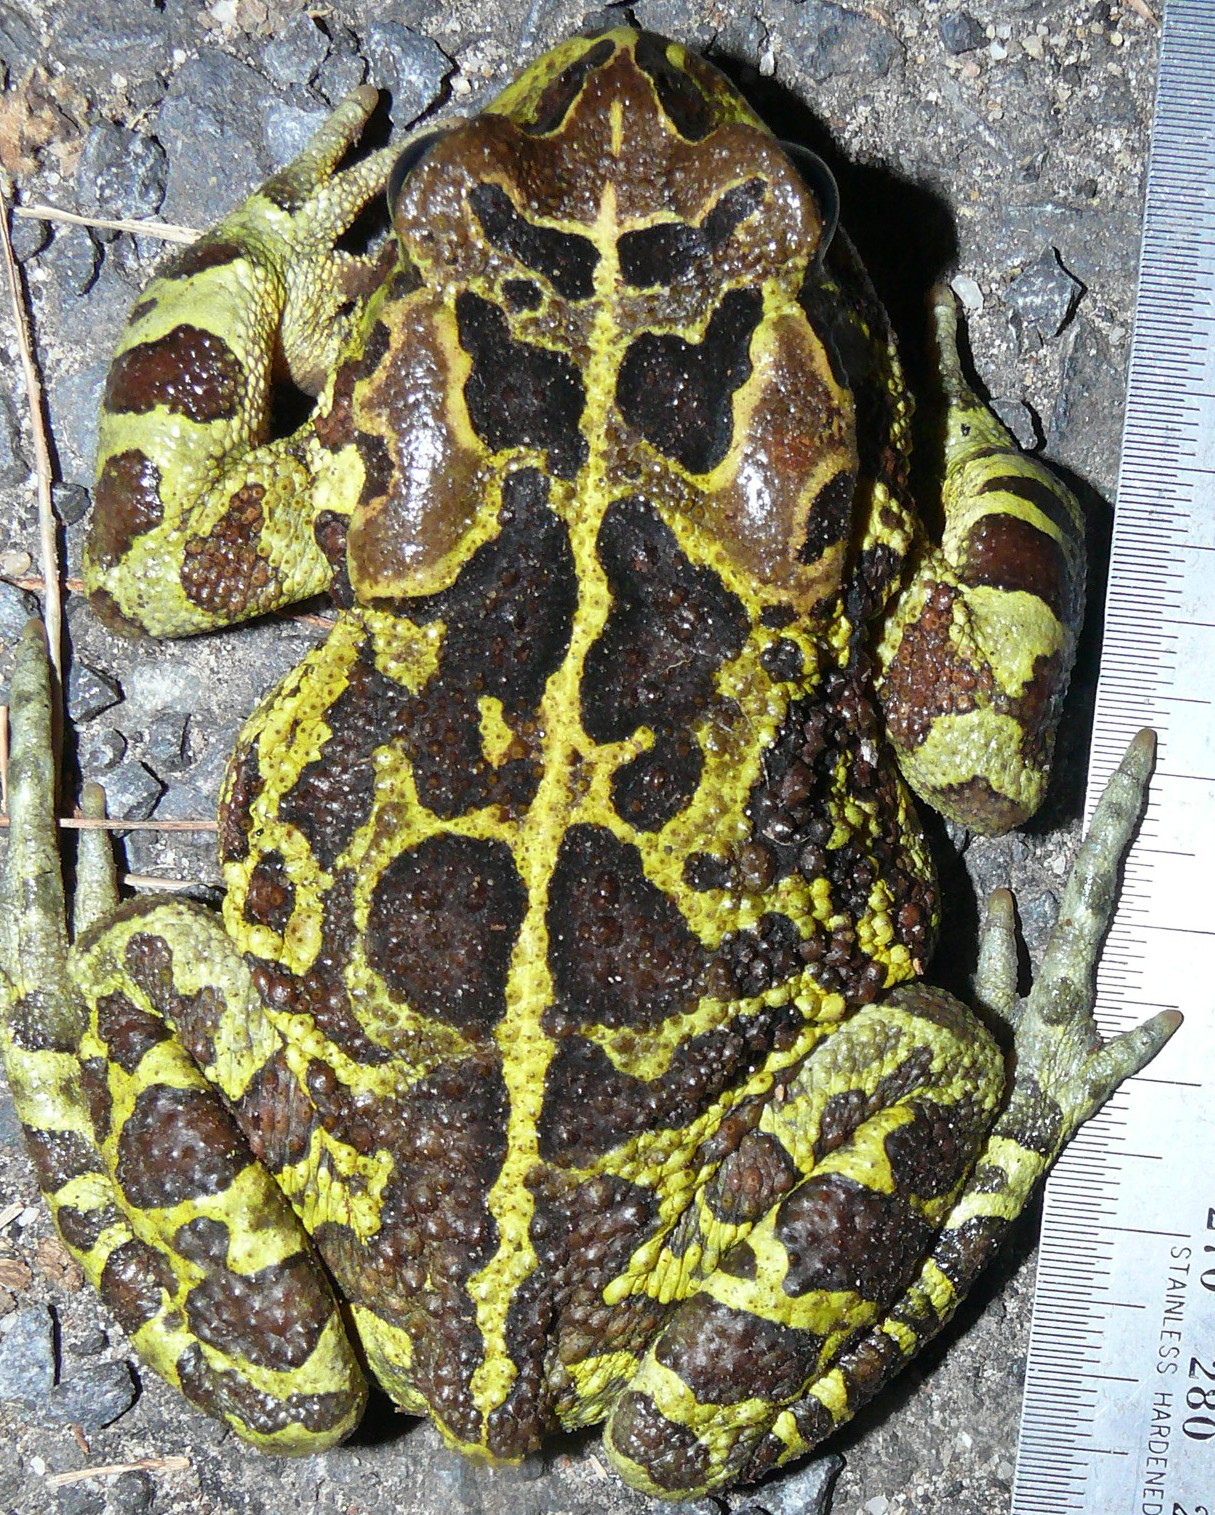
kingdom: Animalia
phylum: Chordata
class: Amphibia
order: Anura
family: Bufonidae
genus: Sclerophrys
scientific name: Sclerophrys pantherina
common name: Panther toad
